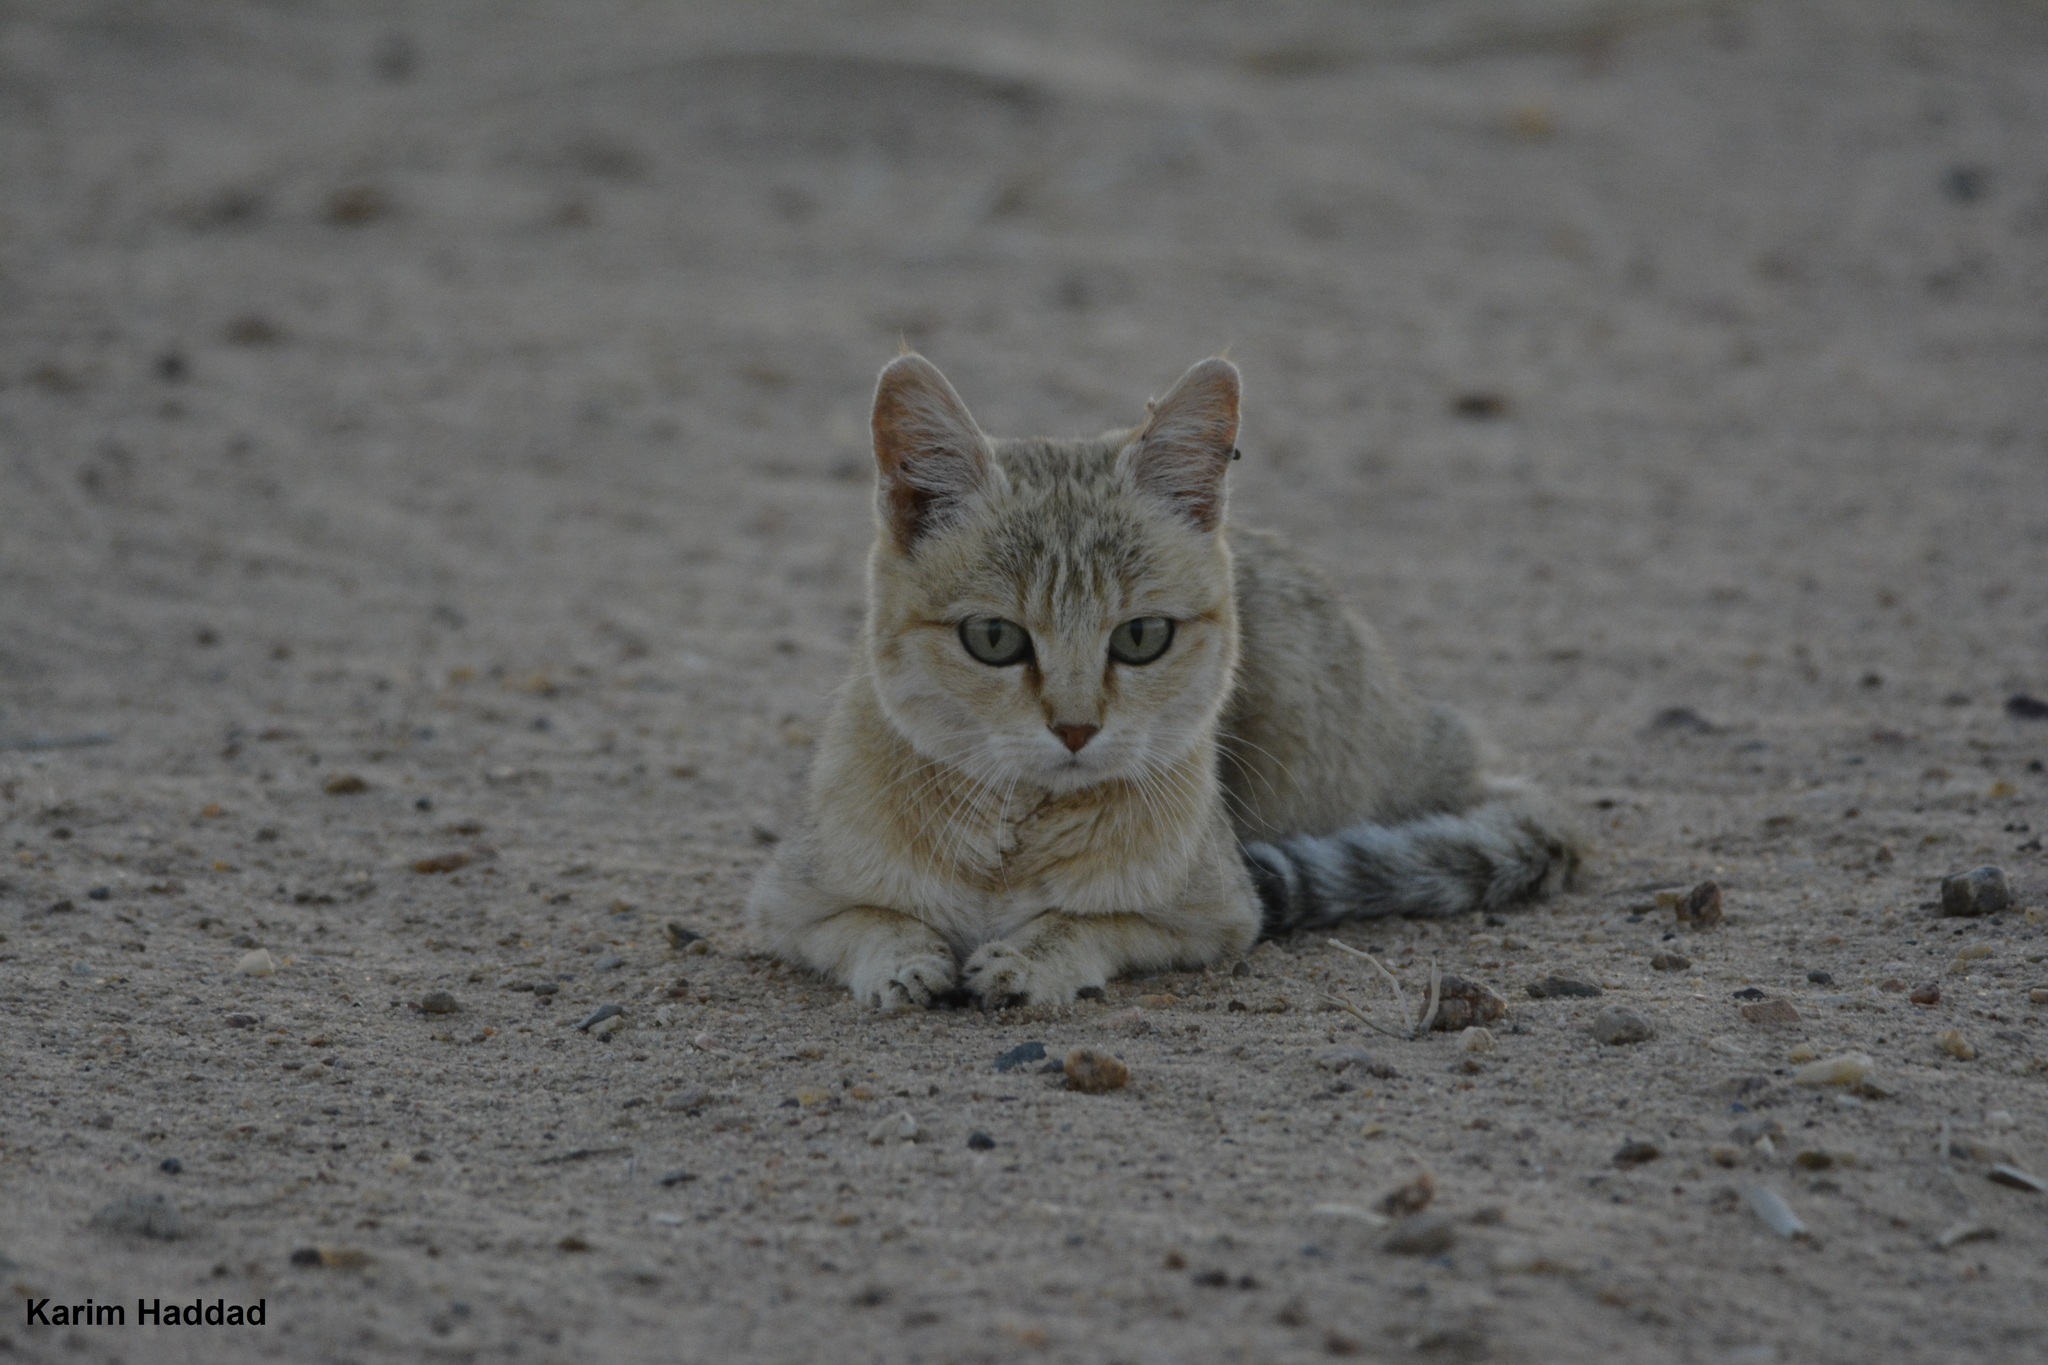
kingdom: Animalia
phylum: Chordata
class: Mammalia
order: Carnivora
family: Felidae
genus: Felis
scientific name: Felis silvestris
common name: Wildcat
